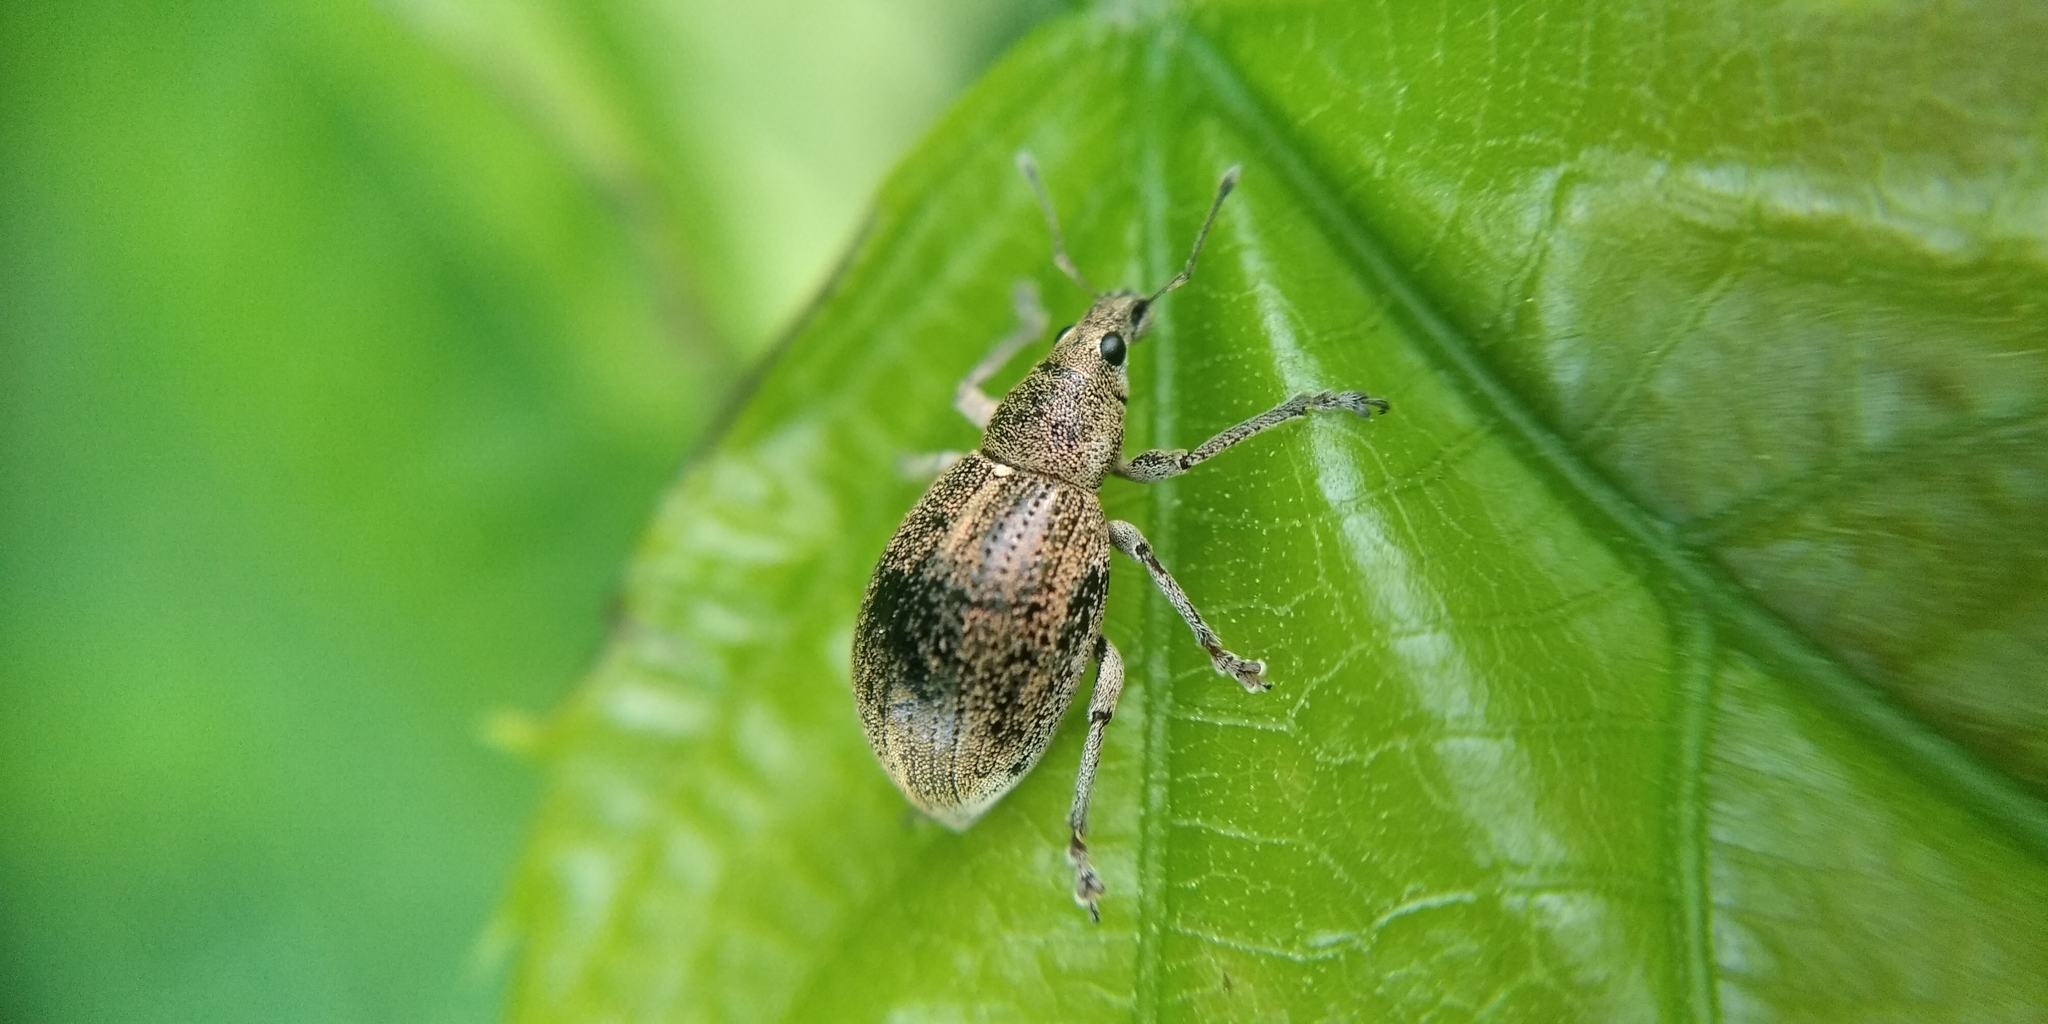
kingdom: Animalia
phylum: Arthropoda
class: Insecta
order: Coleoptera
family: Curculionidae
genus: Sciaphobus
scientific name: Sciaphobus squalidus
